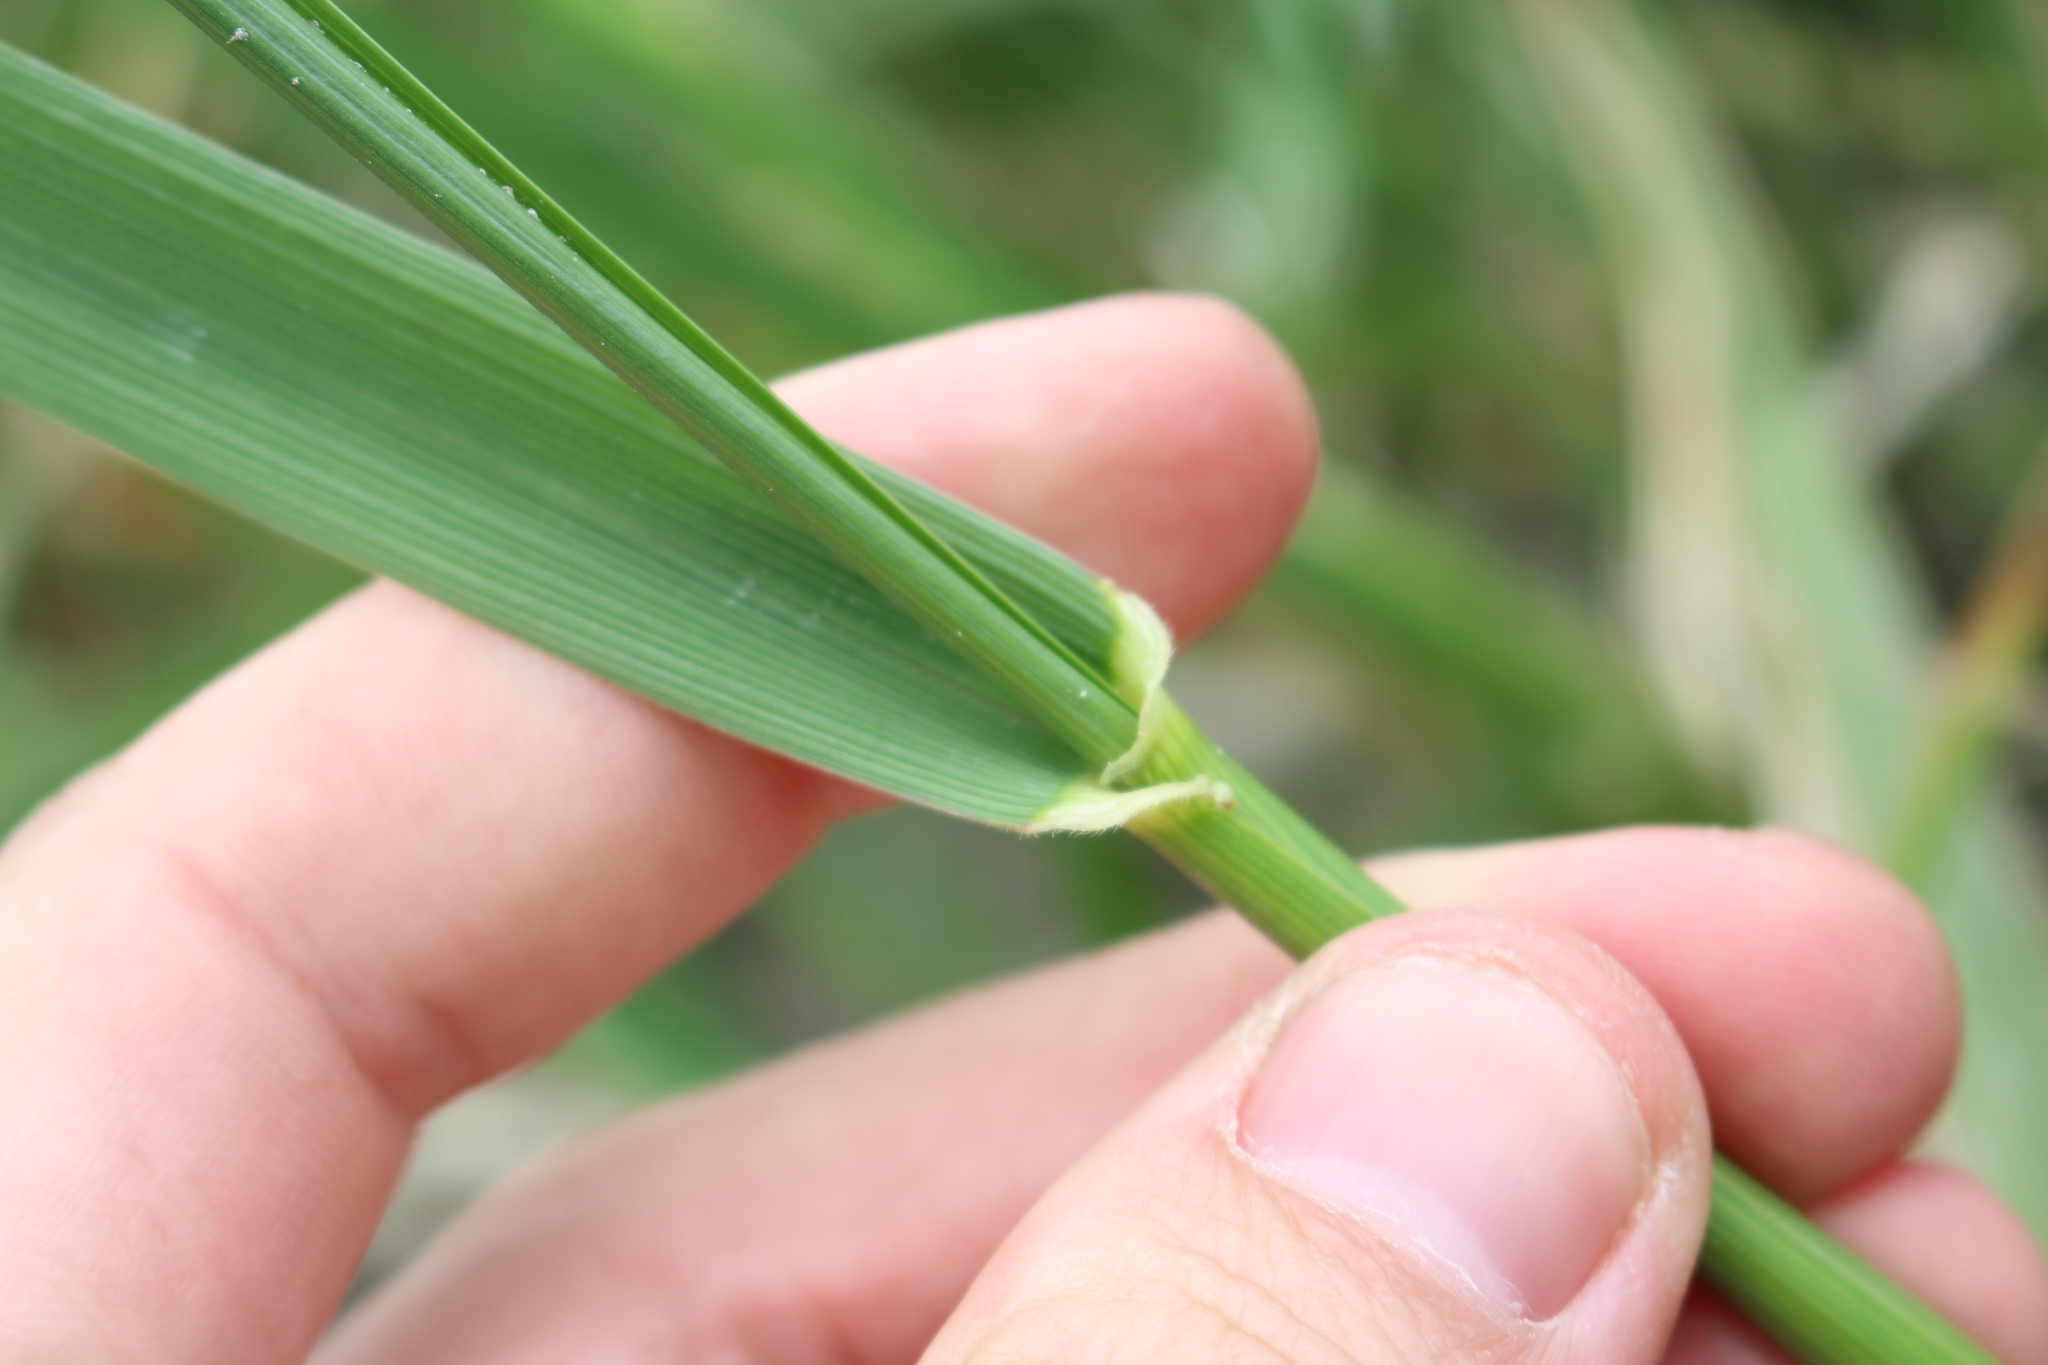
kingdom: Plantae
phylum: Tracheophyta
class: Liliopsida
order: Poales
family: Poaceae
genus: Lolium
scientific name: Lolium arundinaceum
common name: Reed fescue
